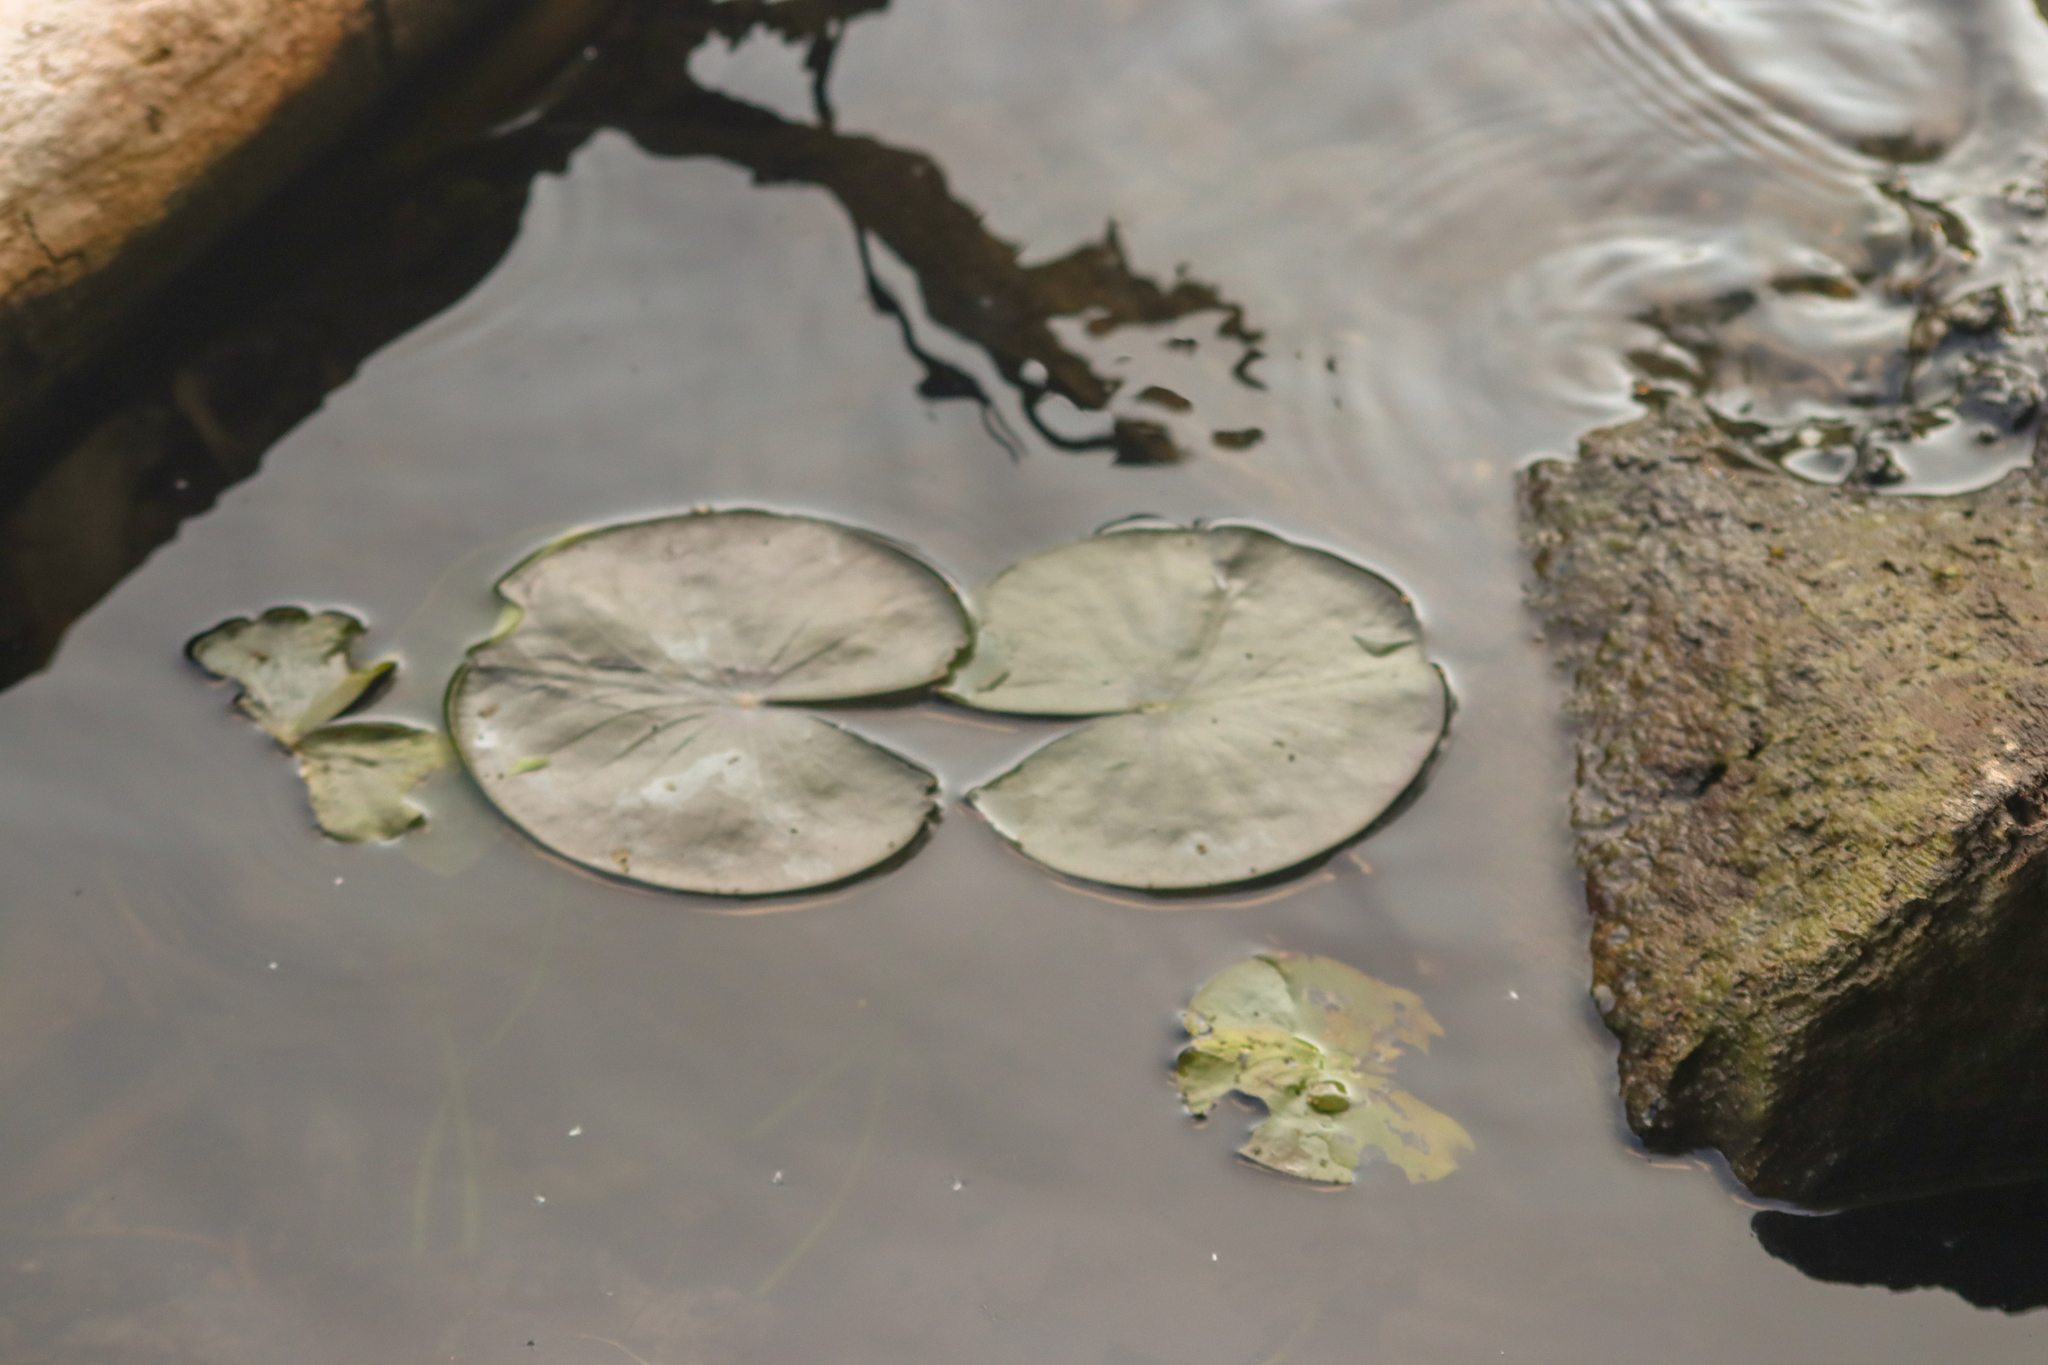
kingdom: Plantae
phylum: Tracheophyta
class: Magnoliopsida
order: Nymphaeales
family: Nymphaeaceae
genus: Nymphaea
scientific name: Nymphaea odorata
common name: Fragrant water-lily
